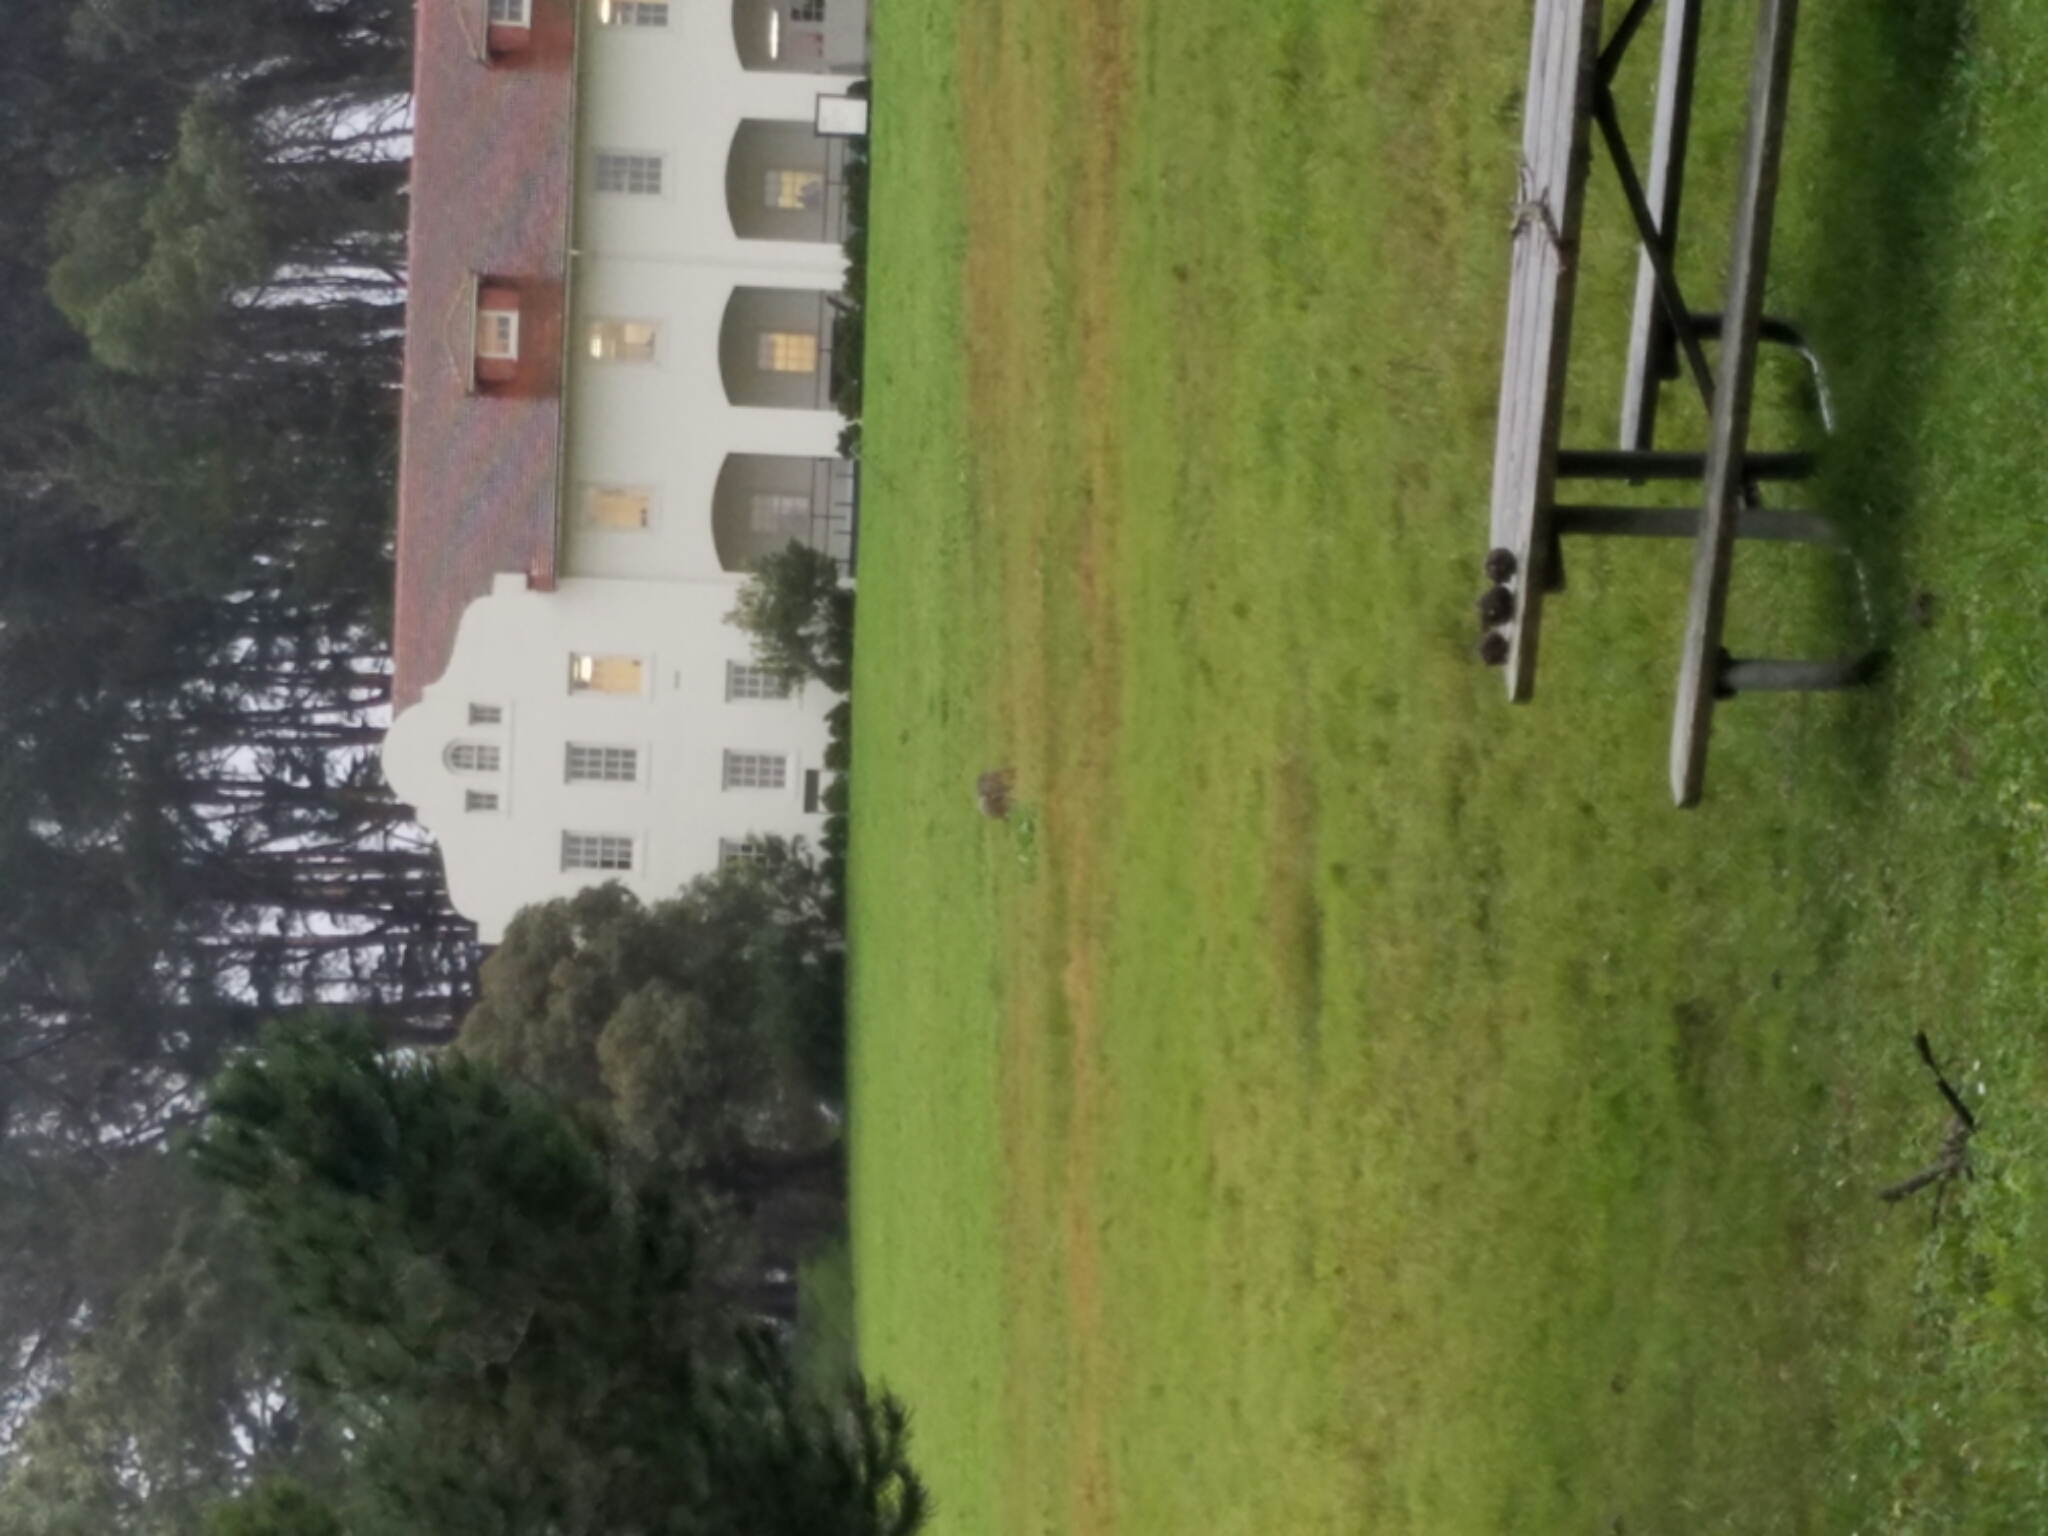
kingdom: Animalia
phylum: Chordata
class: Mammalia
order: Carnivora
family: Canidae
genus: Canis
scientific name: Canis latrans
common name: Coyote
